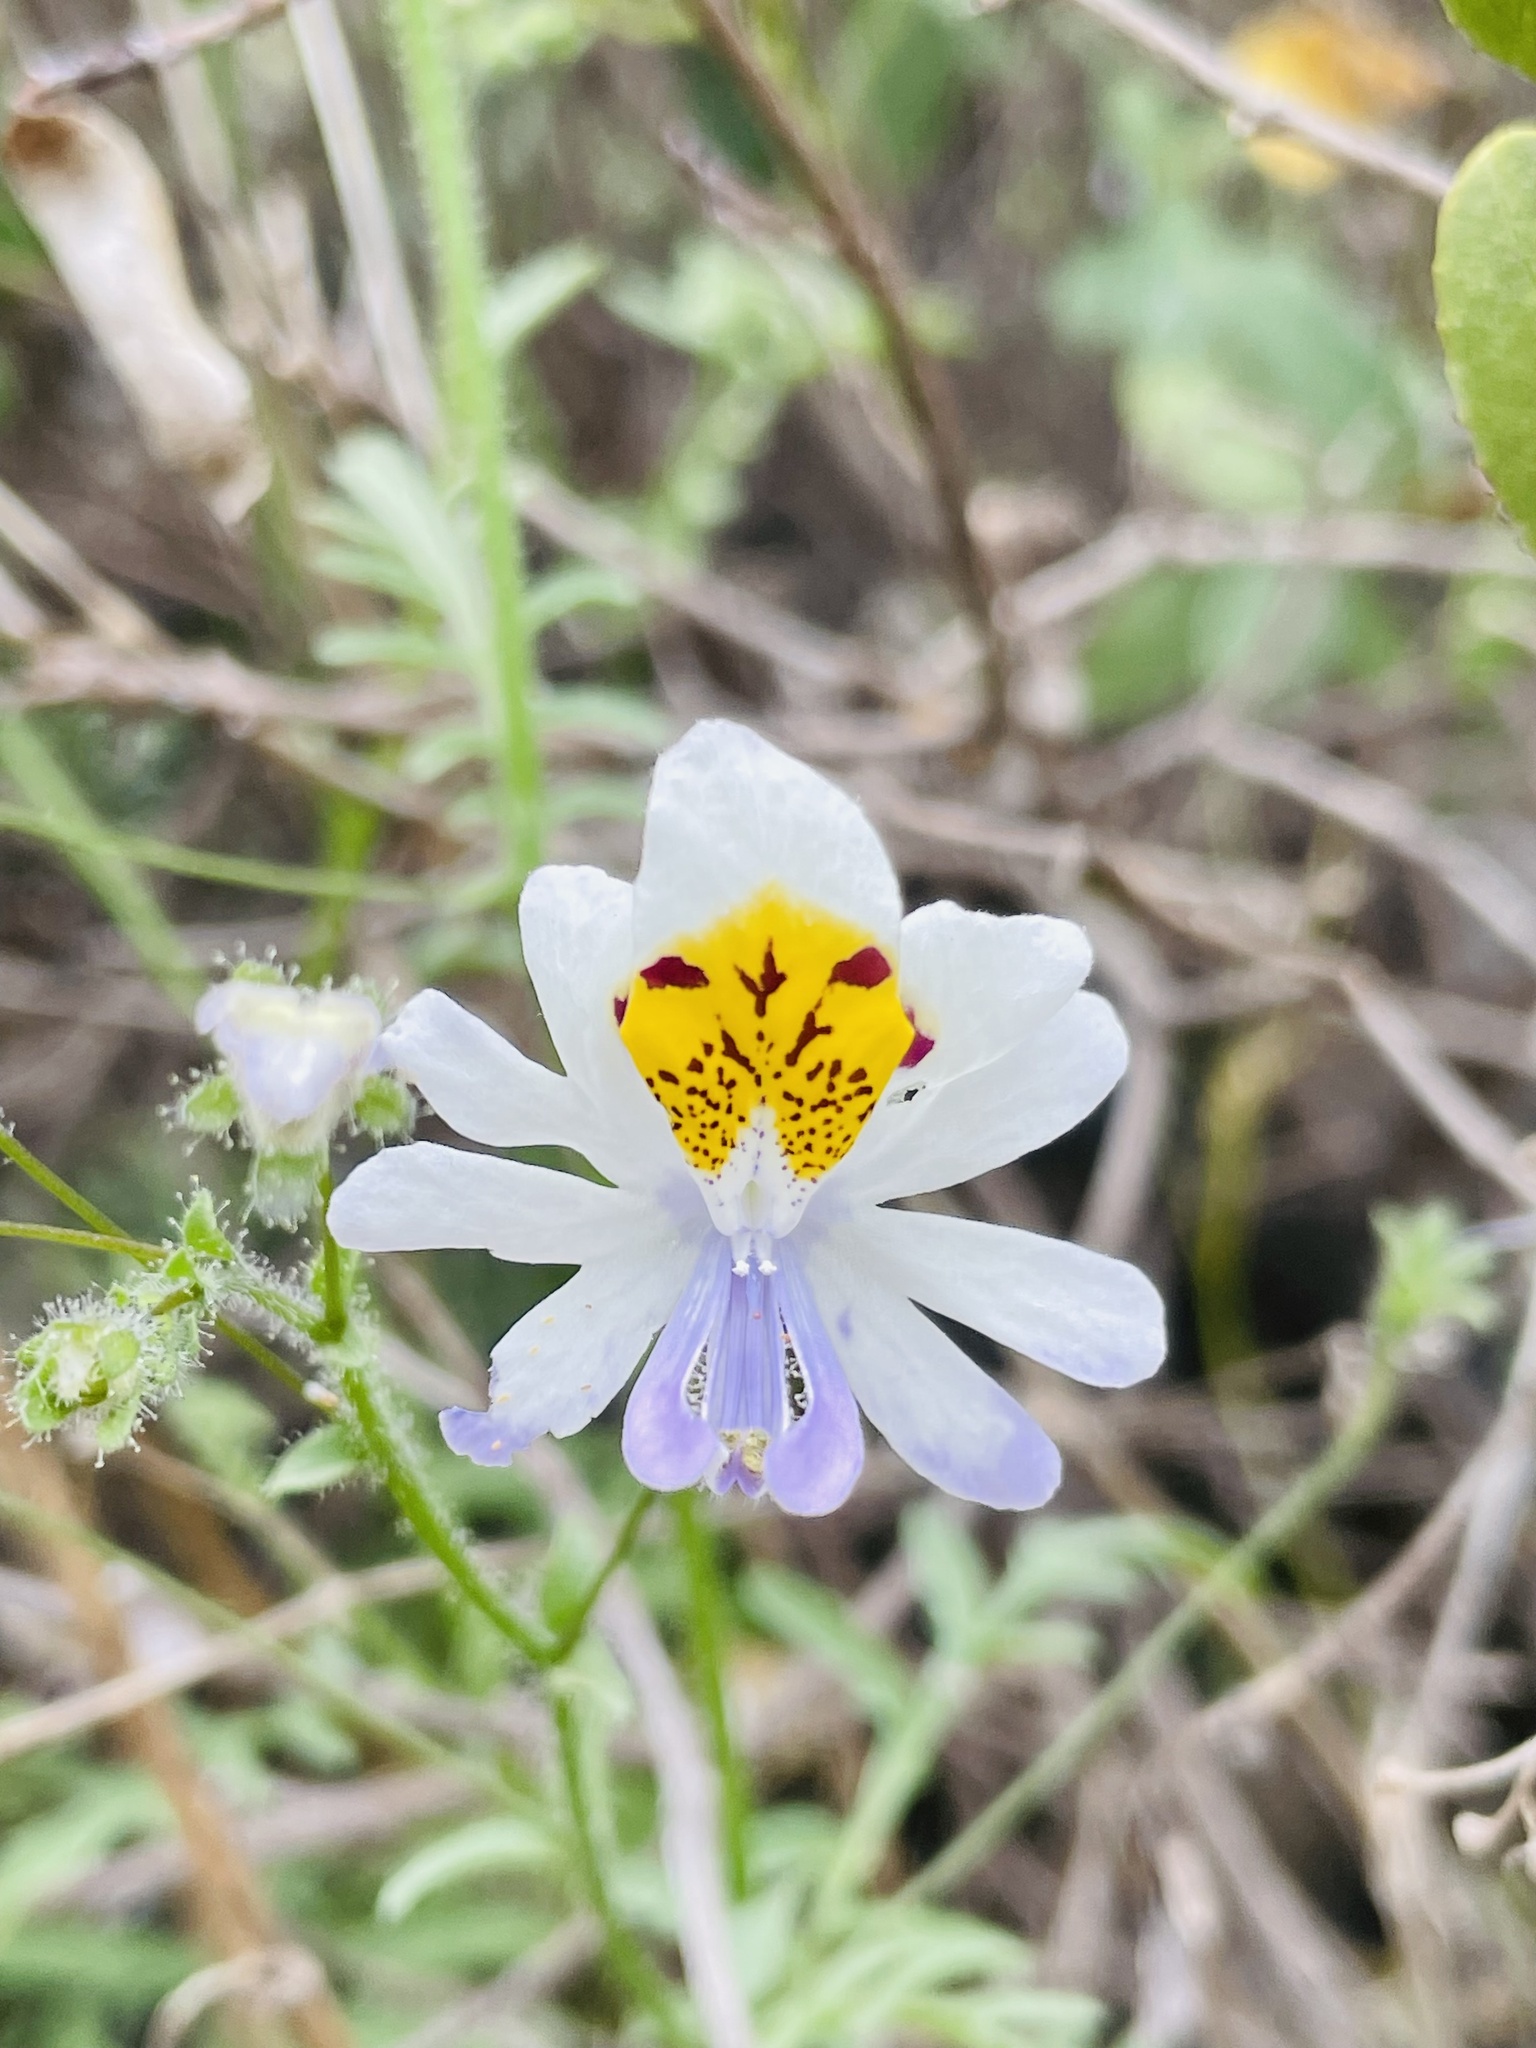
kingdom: Plantae
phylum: Tracheophyta
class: Magnoliopsida
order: Solanales
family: Solanaceae
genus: Schizanthus
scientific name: Schizanthus porrigens
